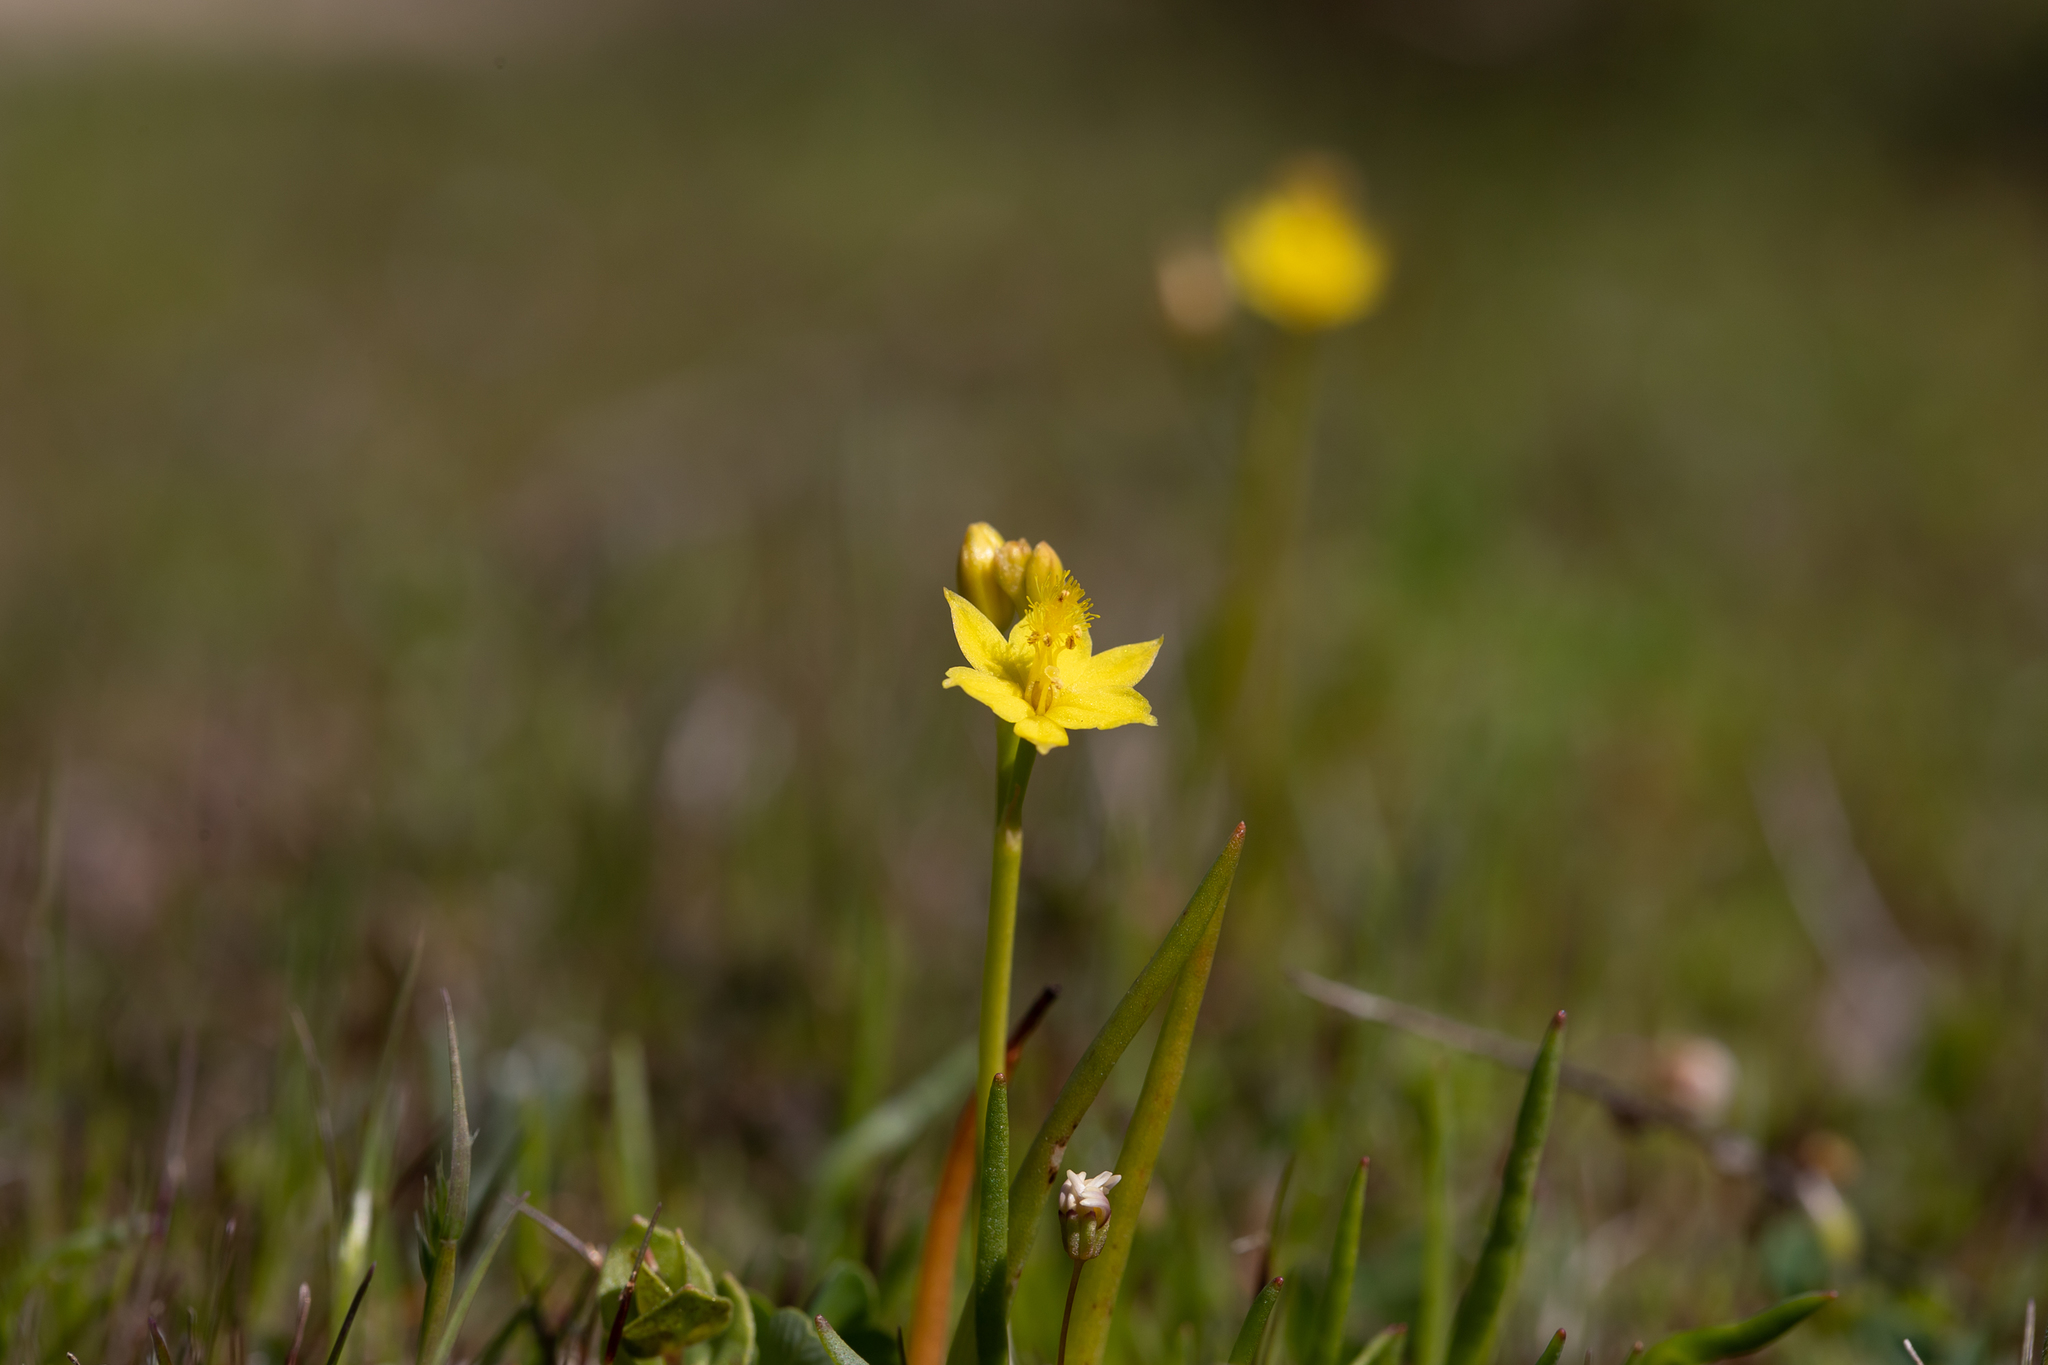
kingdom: Plantae
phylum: Tracheophyta
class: Liliopsida
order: Asparagales
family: Asphodelaceae
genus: Bulbine
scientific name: Bulbine semibarbata
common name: Leek lily
